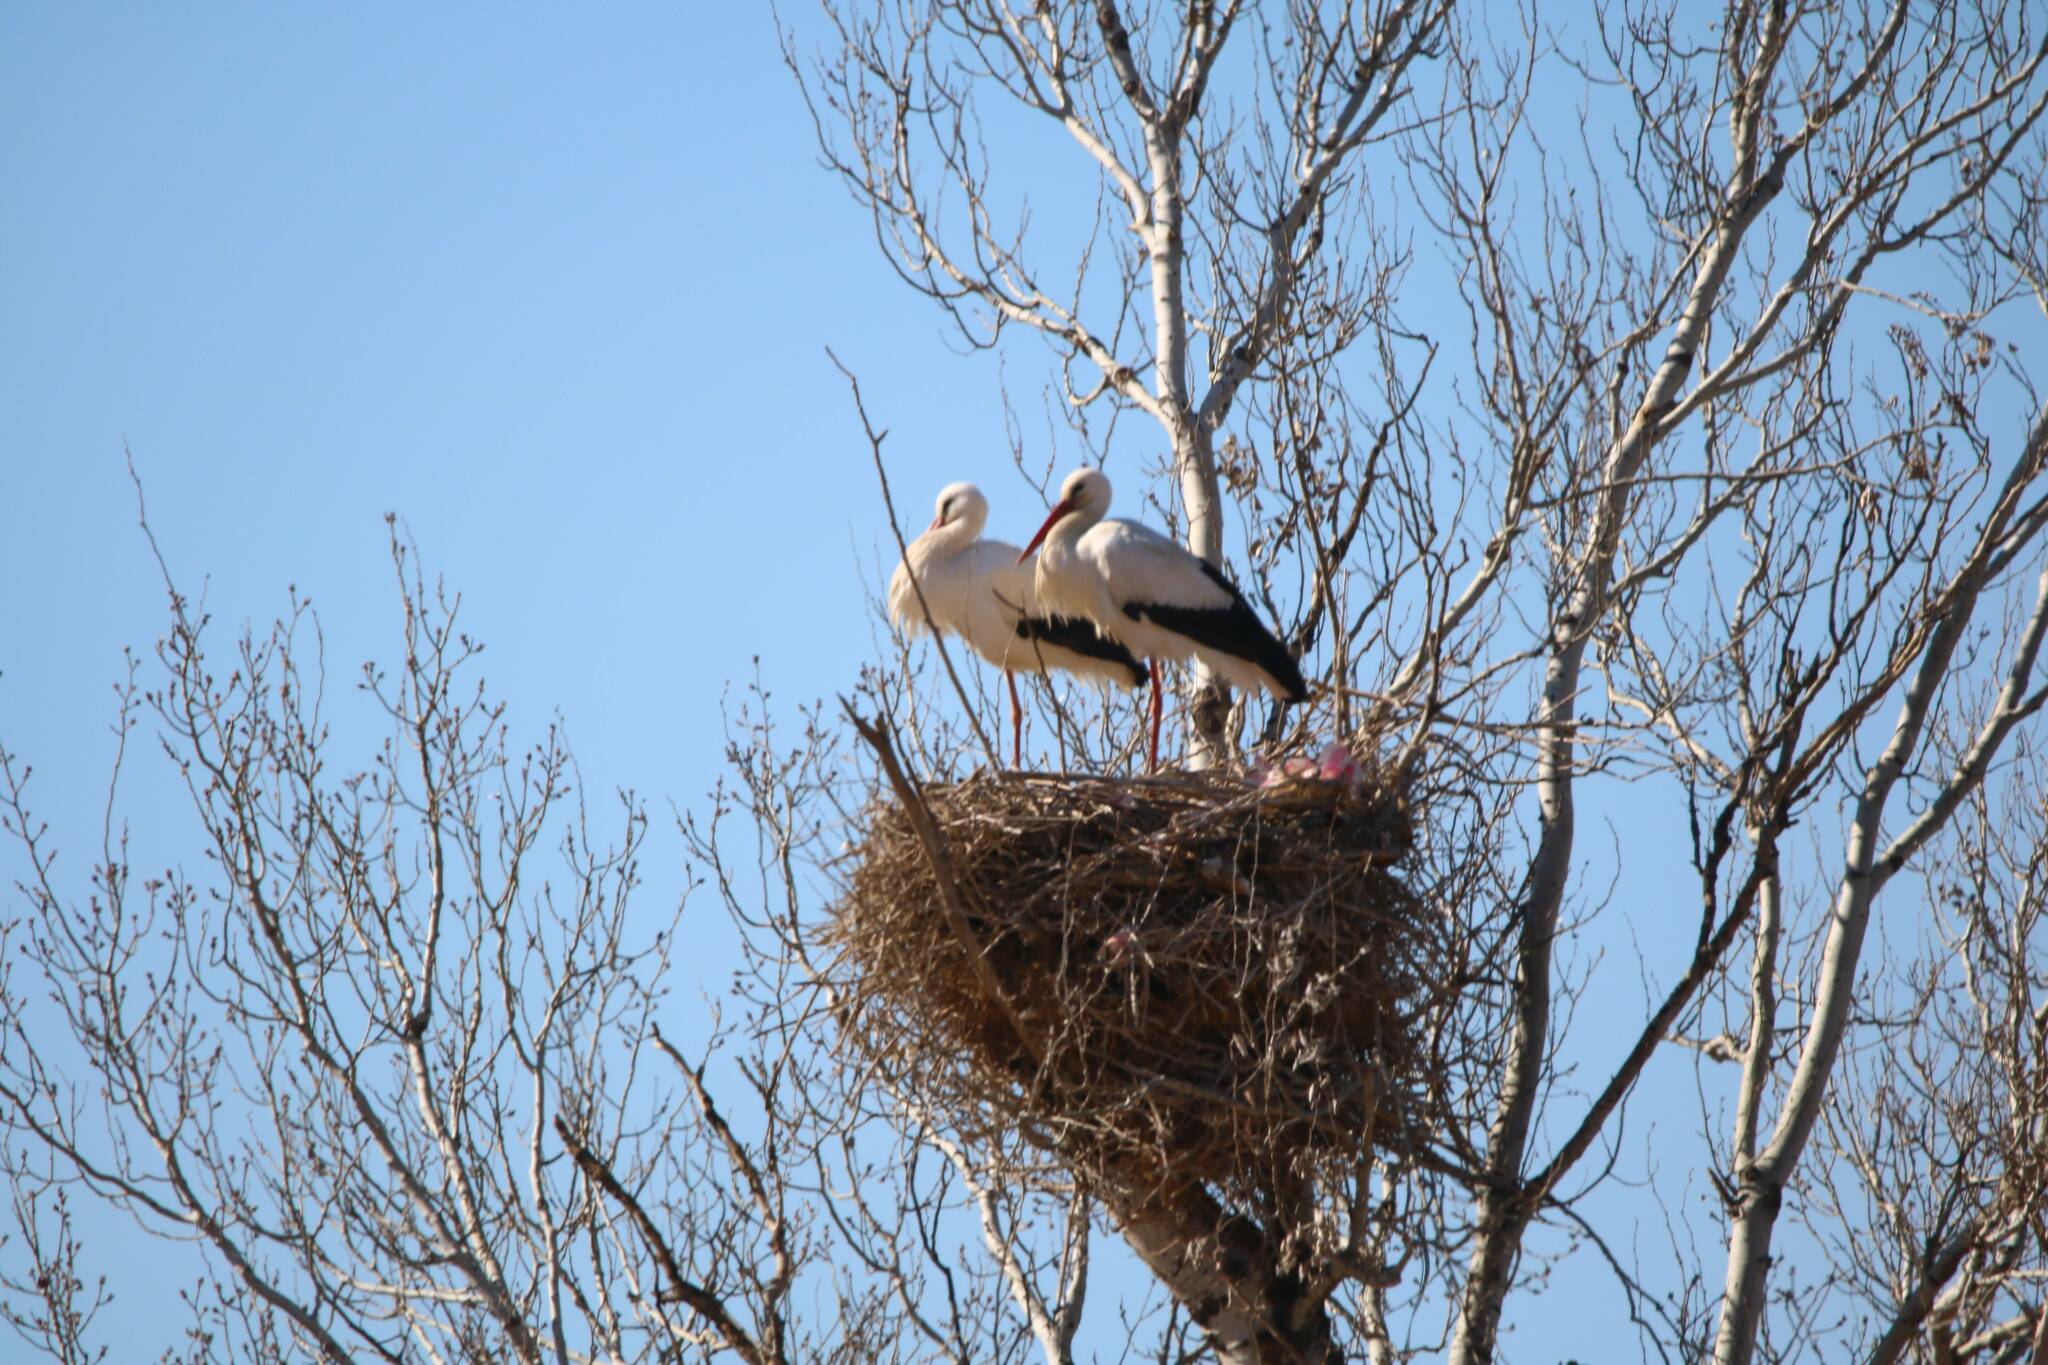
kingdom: Animalia
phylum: Chordata
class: Aves
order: Ciconiiformes
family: Ciconiidae
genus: Ciconia
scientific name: Ciconia ciconia
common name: White stork
